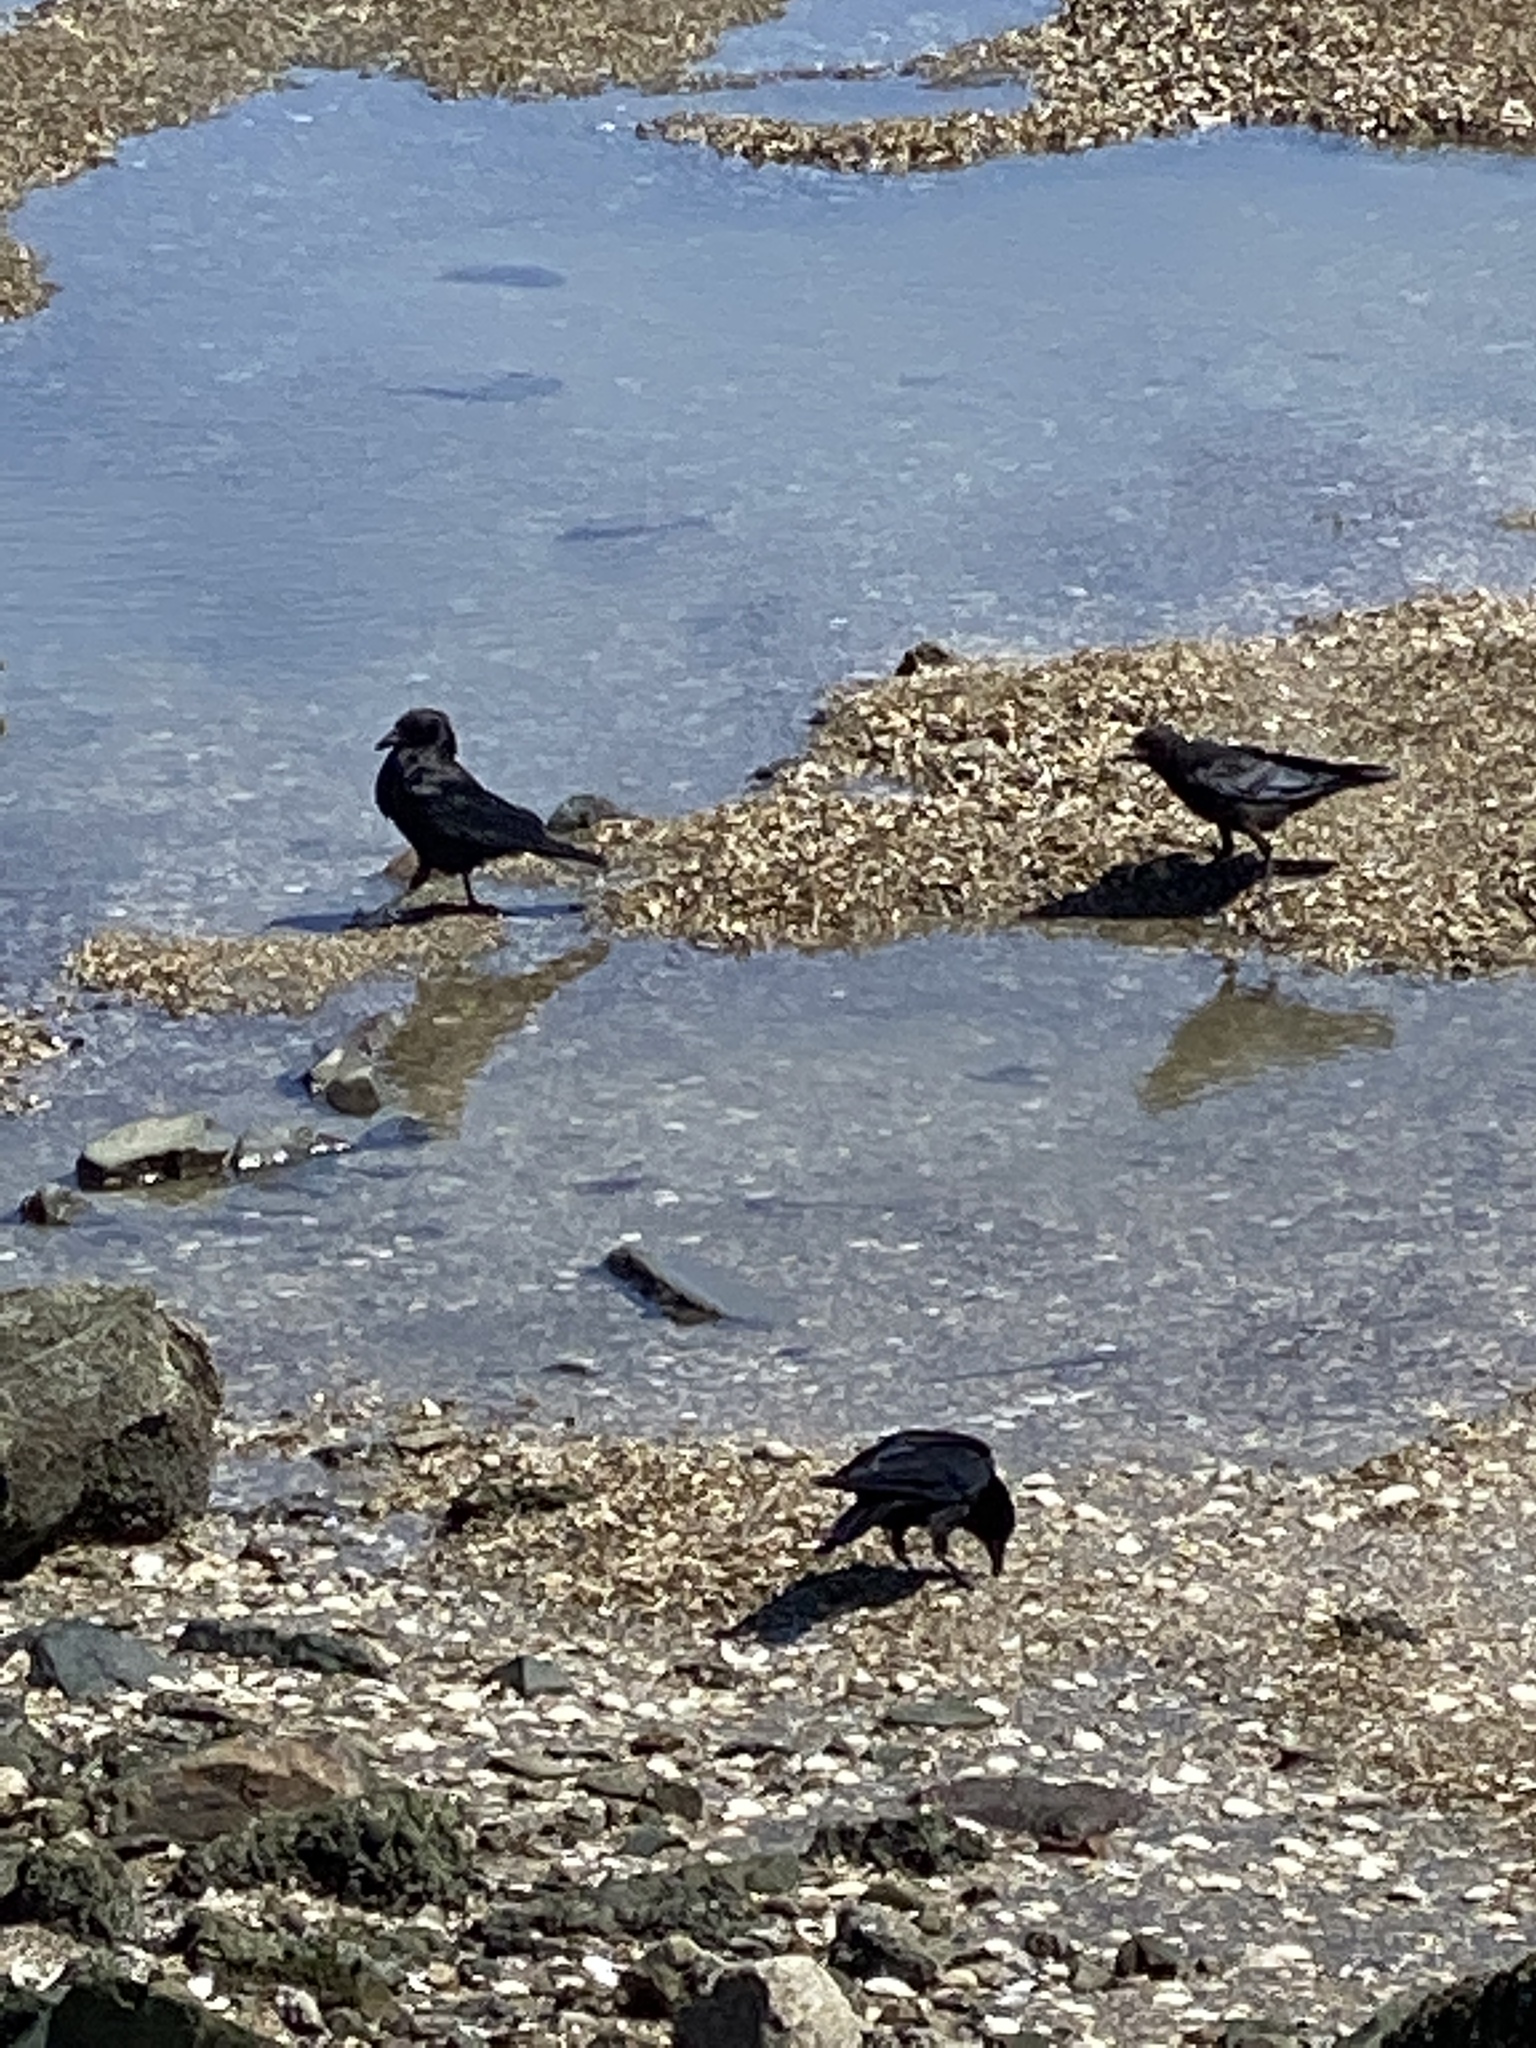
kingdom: Animalia
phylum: Chordata
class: Aves
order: Passeriformes
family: Corvidae
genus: Corvus
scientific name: Corvus brachyrhynchos
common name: American crow
